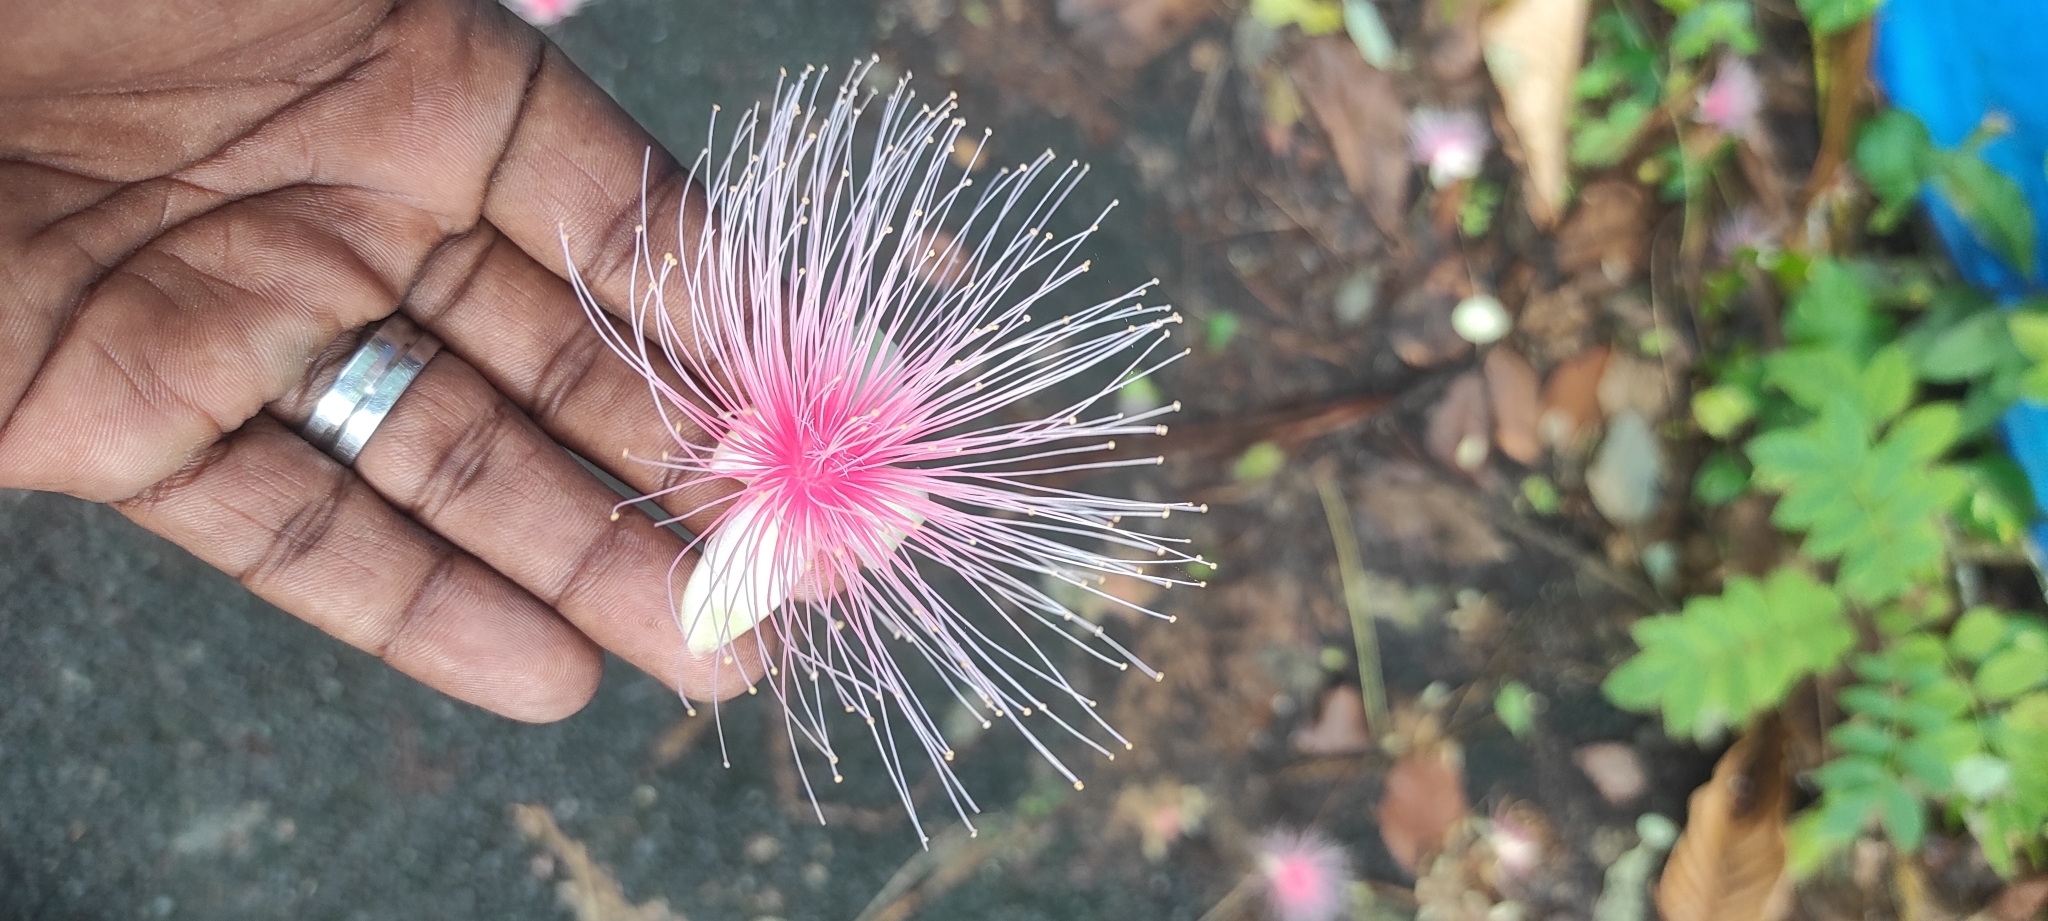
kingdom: Plantae
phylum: Tracheophyta
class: Magnoliopsida
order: Ericales
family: Lecythidaceae
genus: Barringtonia
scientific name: Barringtonia racemosa
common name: Brackwater mangrove
